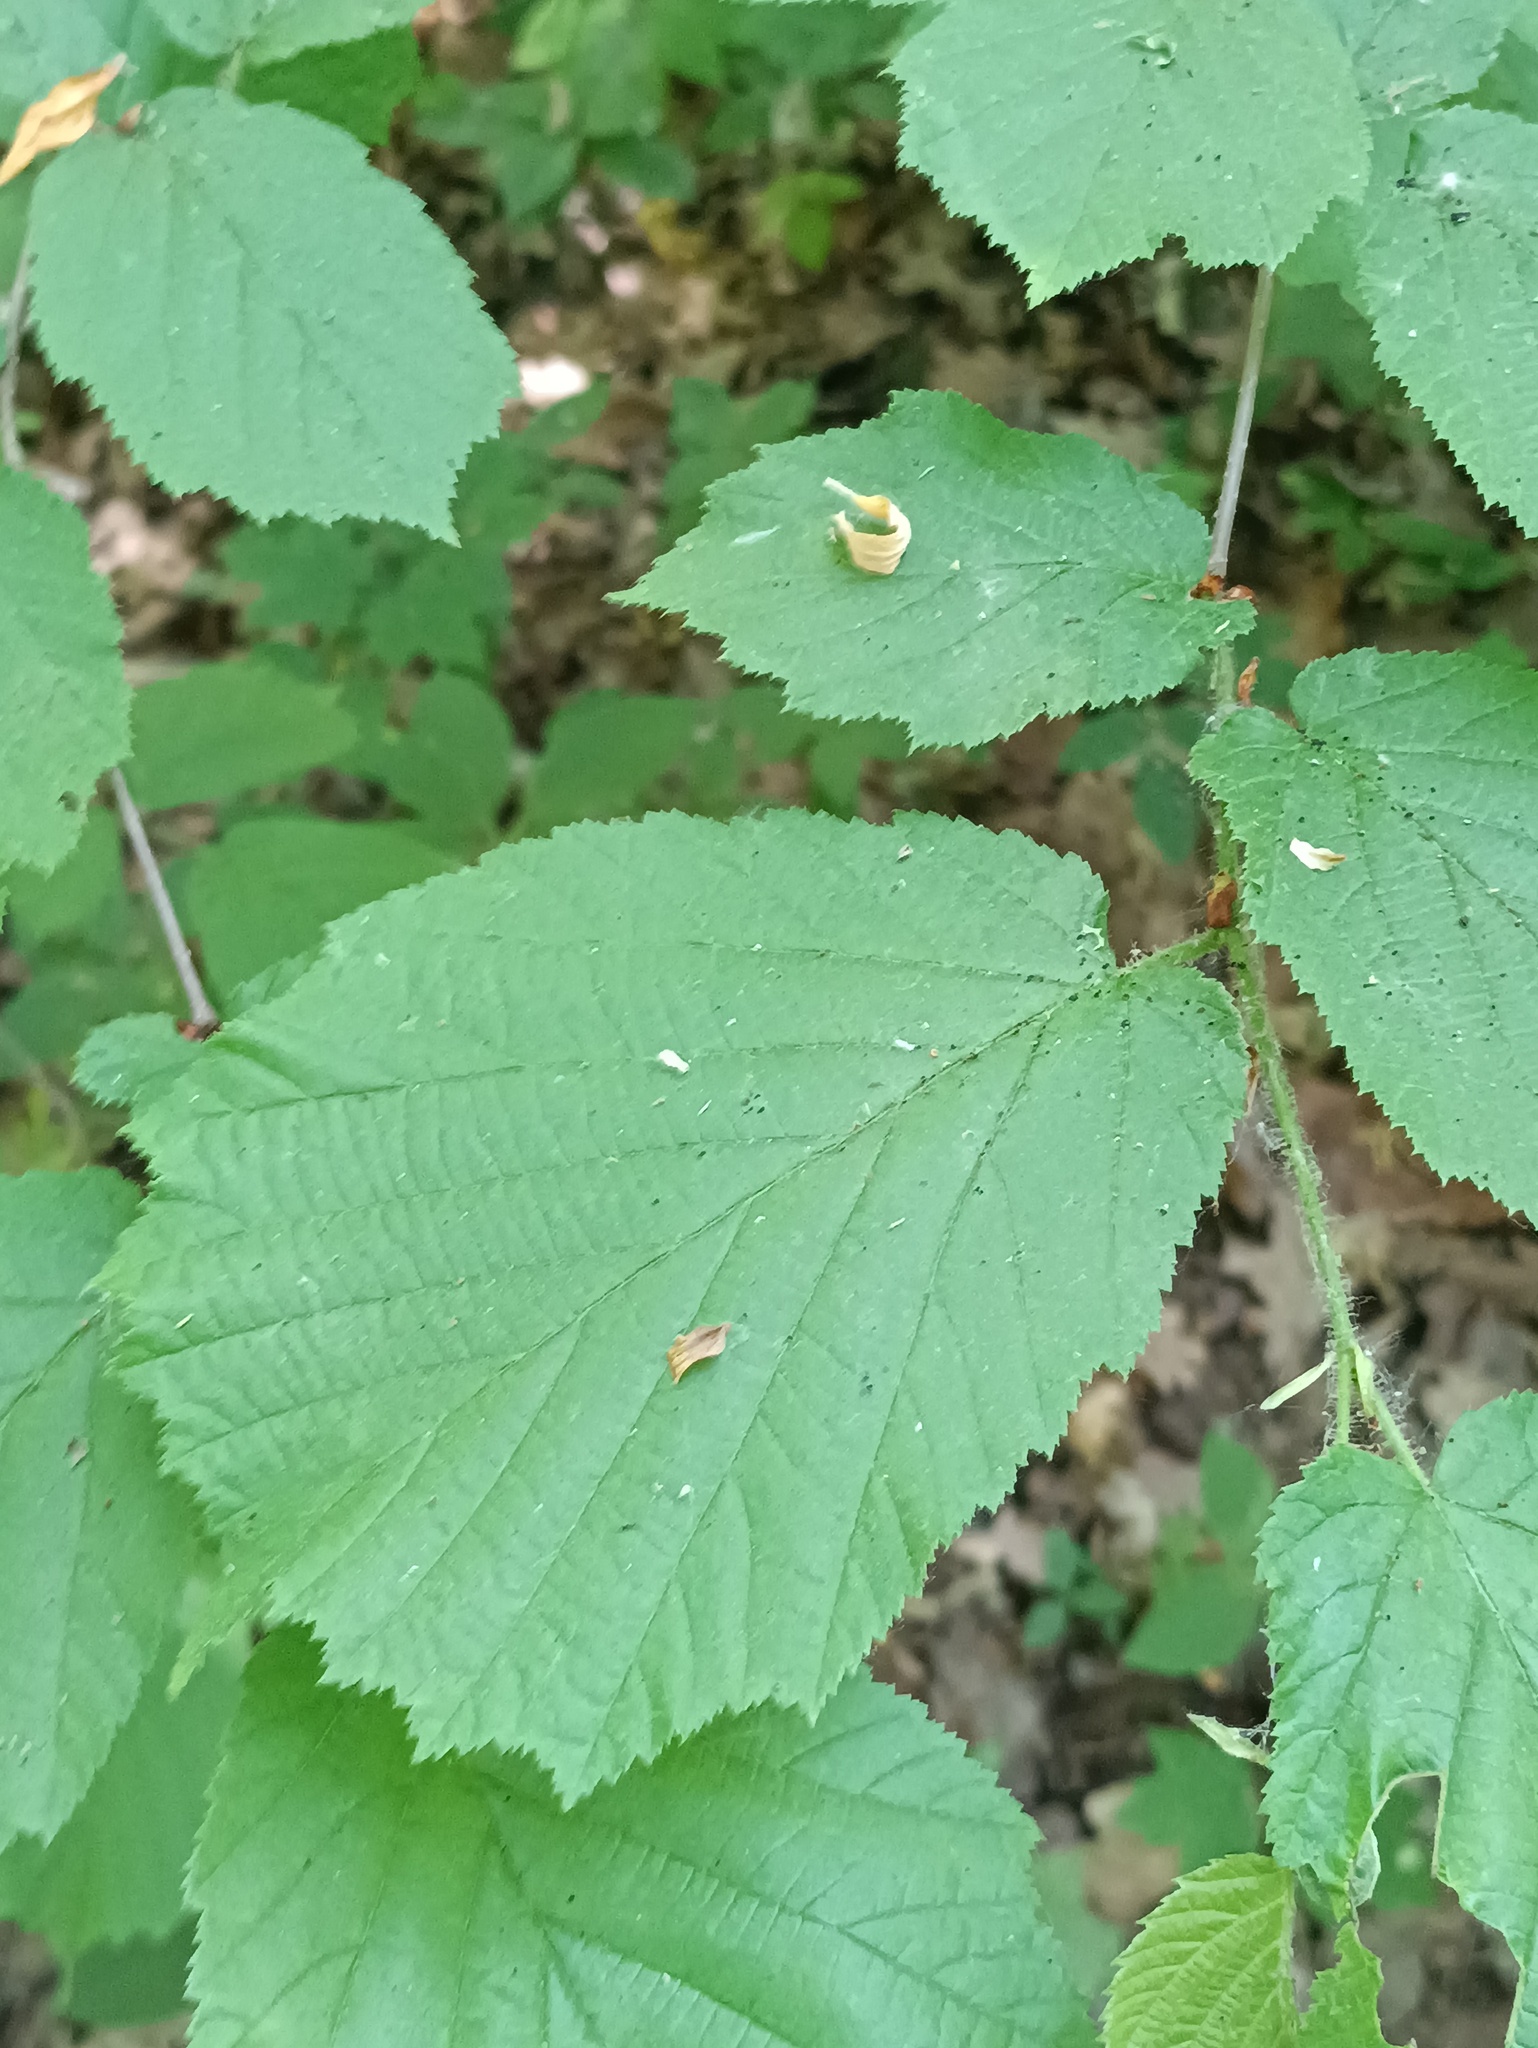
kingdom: Plantae
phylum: Tracheophyta
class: Magnoliopsida
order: Fagales
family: Betulaceae
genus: Corylus
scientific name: Corylus avellana
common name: European hazel
